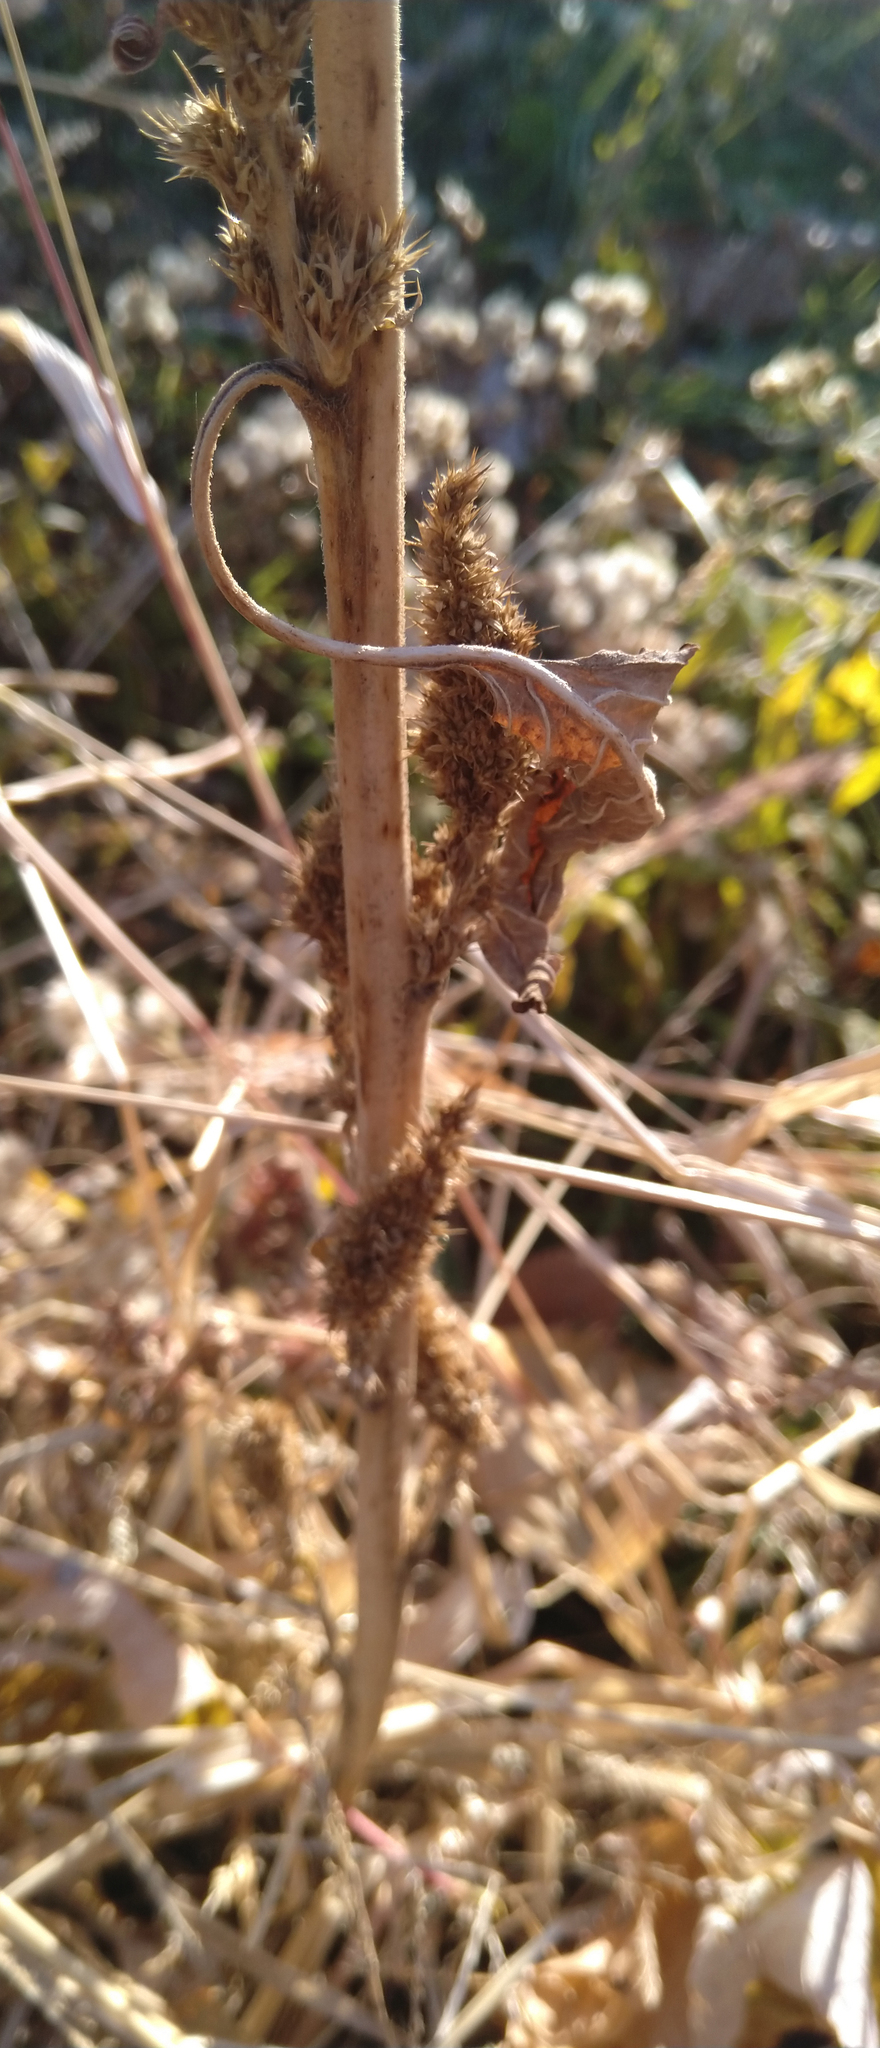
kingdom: Plantae
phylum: Tracheophyta
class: Magnoliopsida
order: Caryophyllales
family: Amaranthaceae
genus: Amaranthus
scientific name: Amaranthus retroflexus
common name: Redroot amaranth
